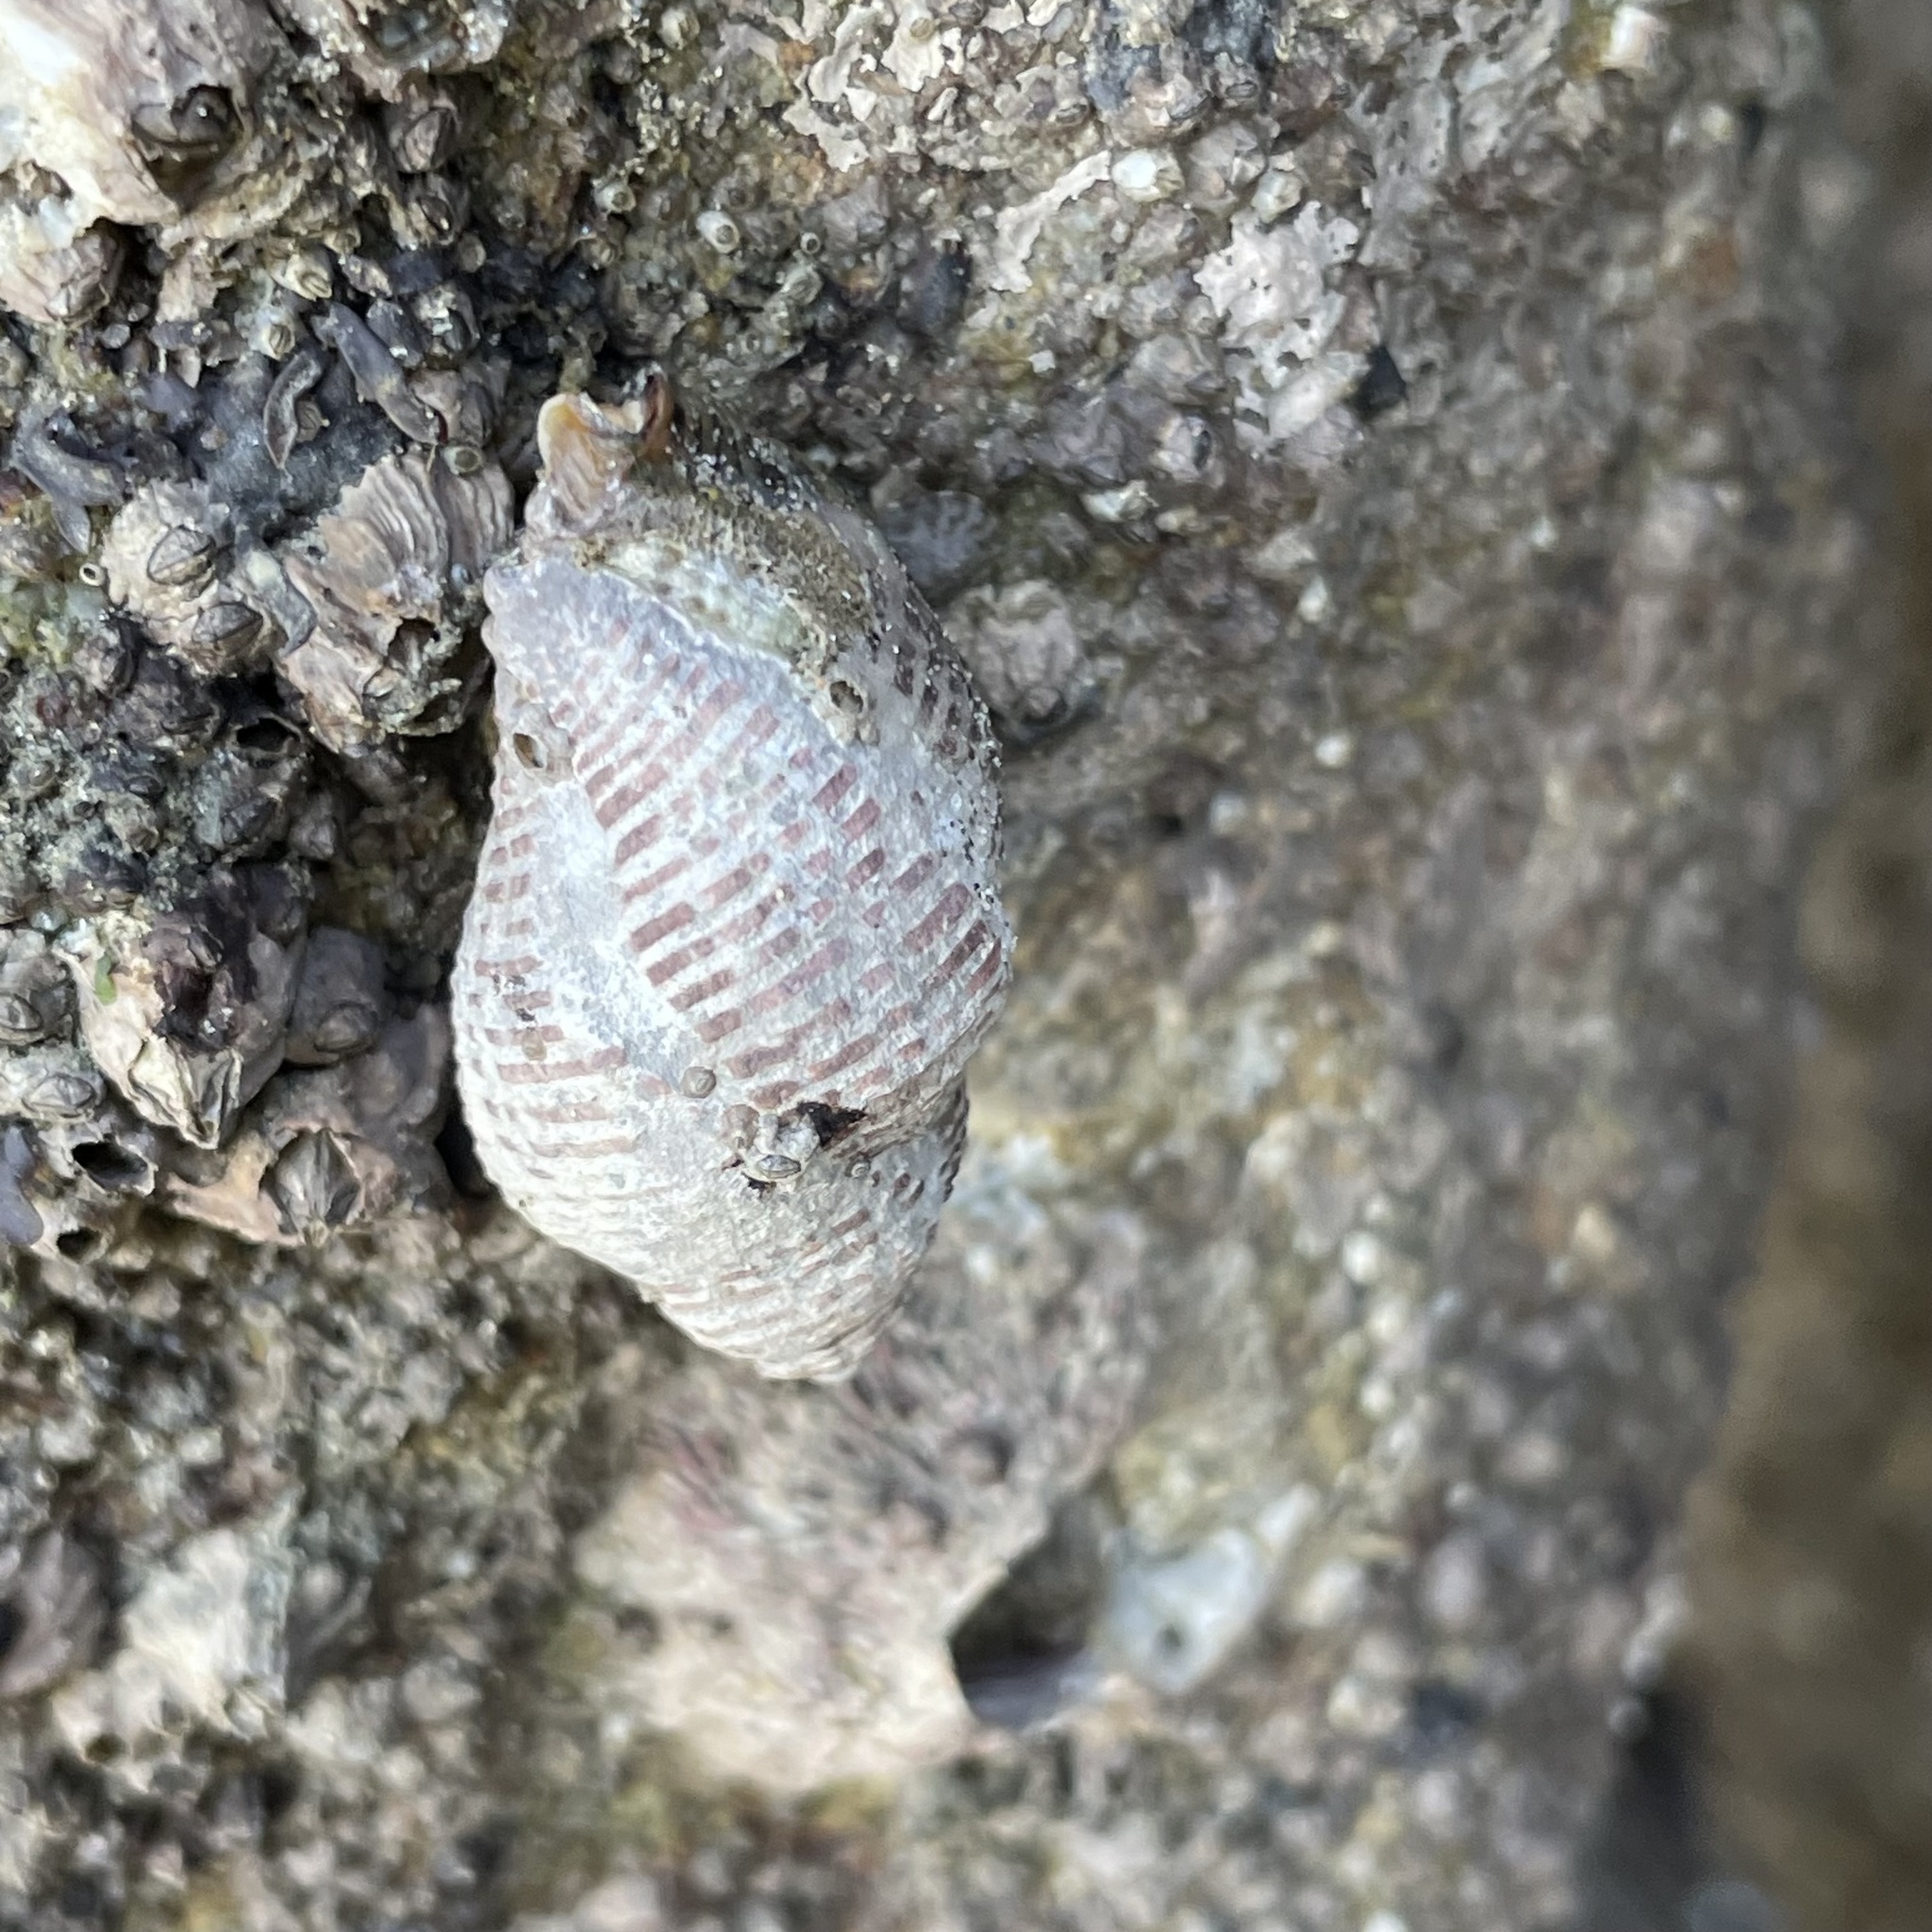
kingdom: Animalia
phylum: Mollusca
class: Gastropoda
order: Neogastropoda
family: Muricidae
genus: Acanthinucella
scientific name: Acanthinucella spirata
